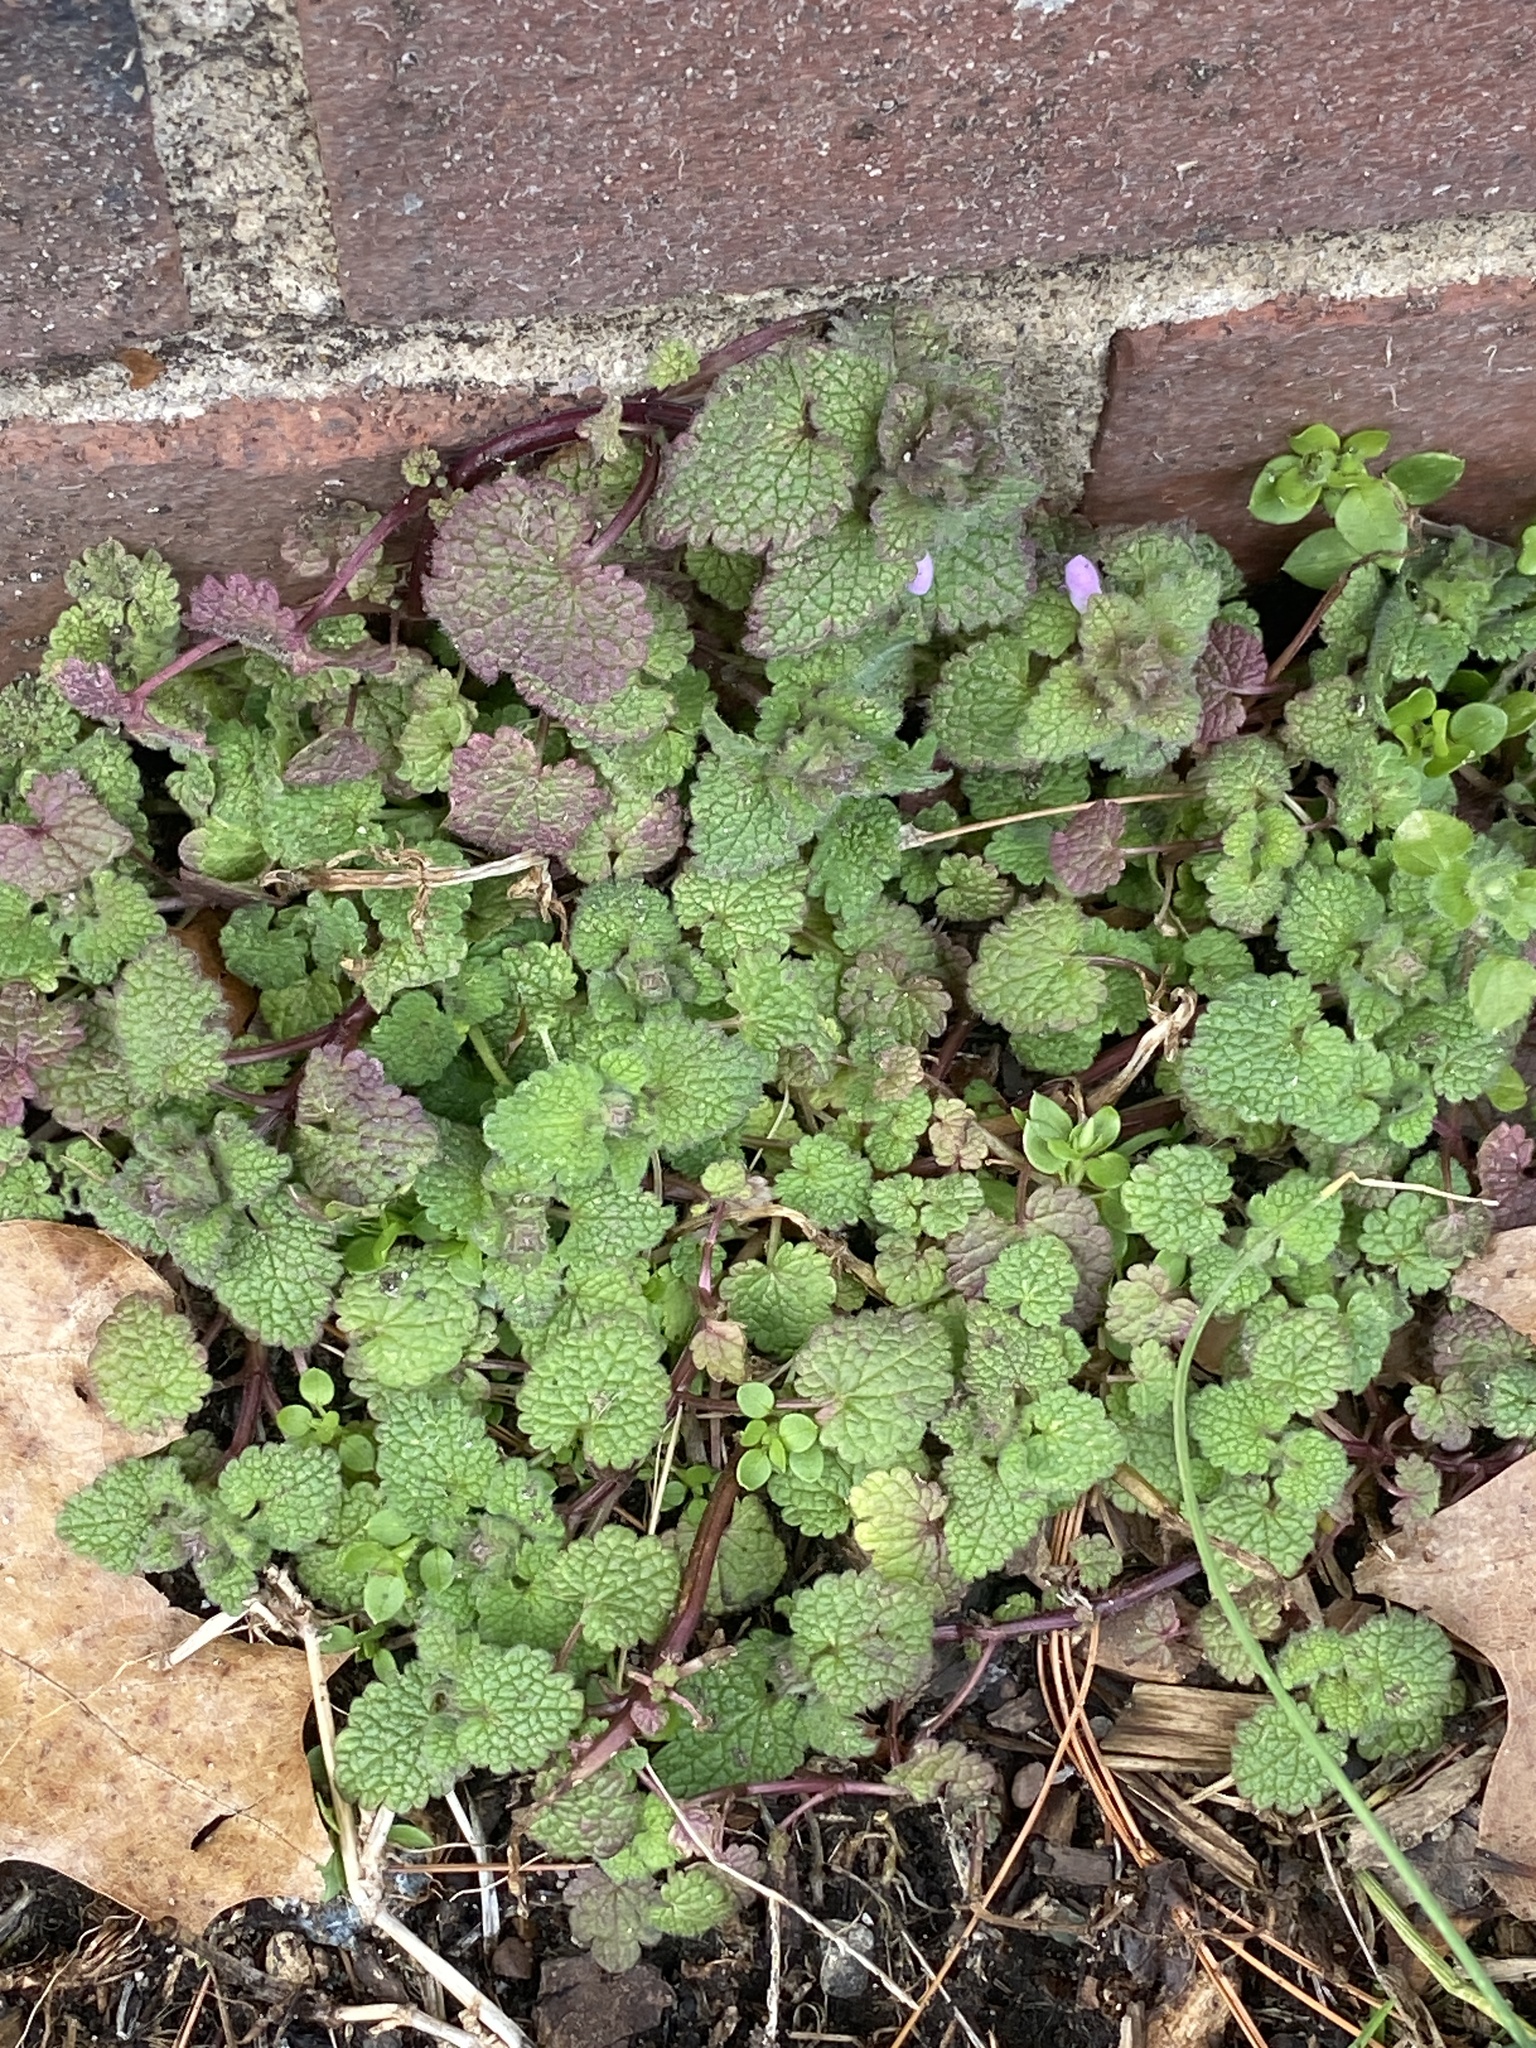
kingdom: Plantae
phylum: Tracheophyta
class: Magnoliopsida
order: Lamiales
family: Lamiaceae
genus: Lamium
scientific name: Lamium purpureum
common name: Red dead-nettle
